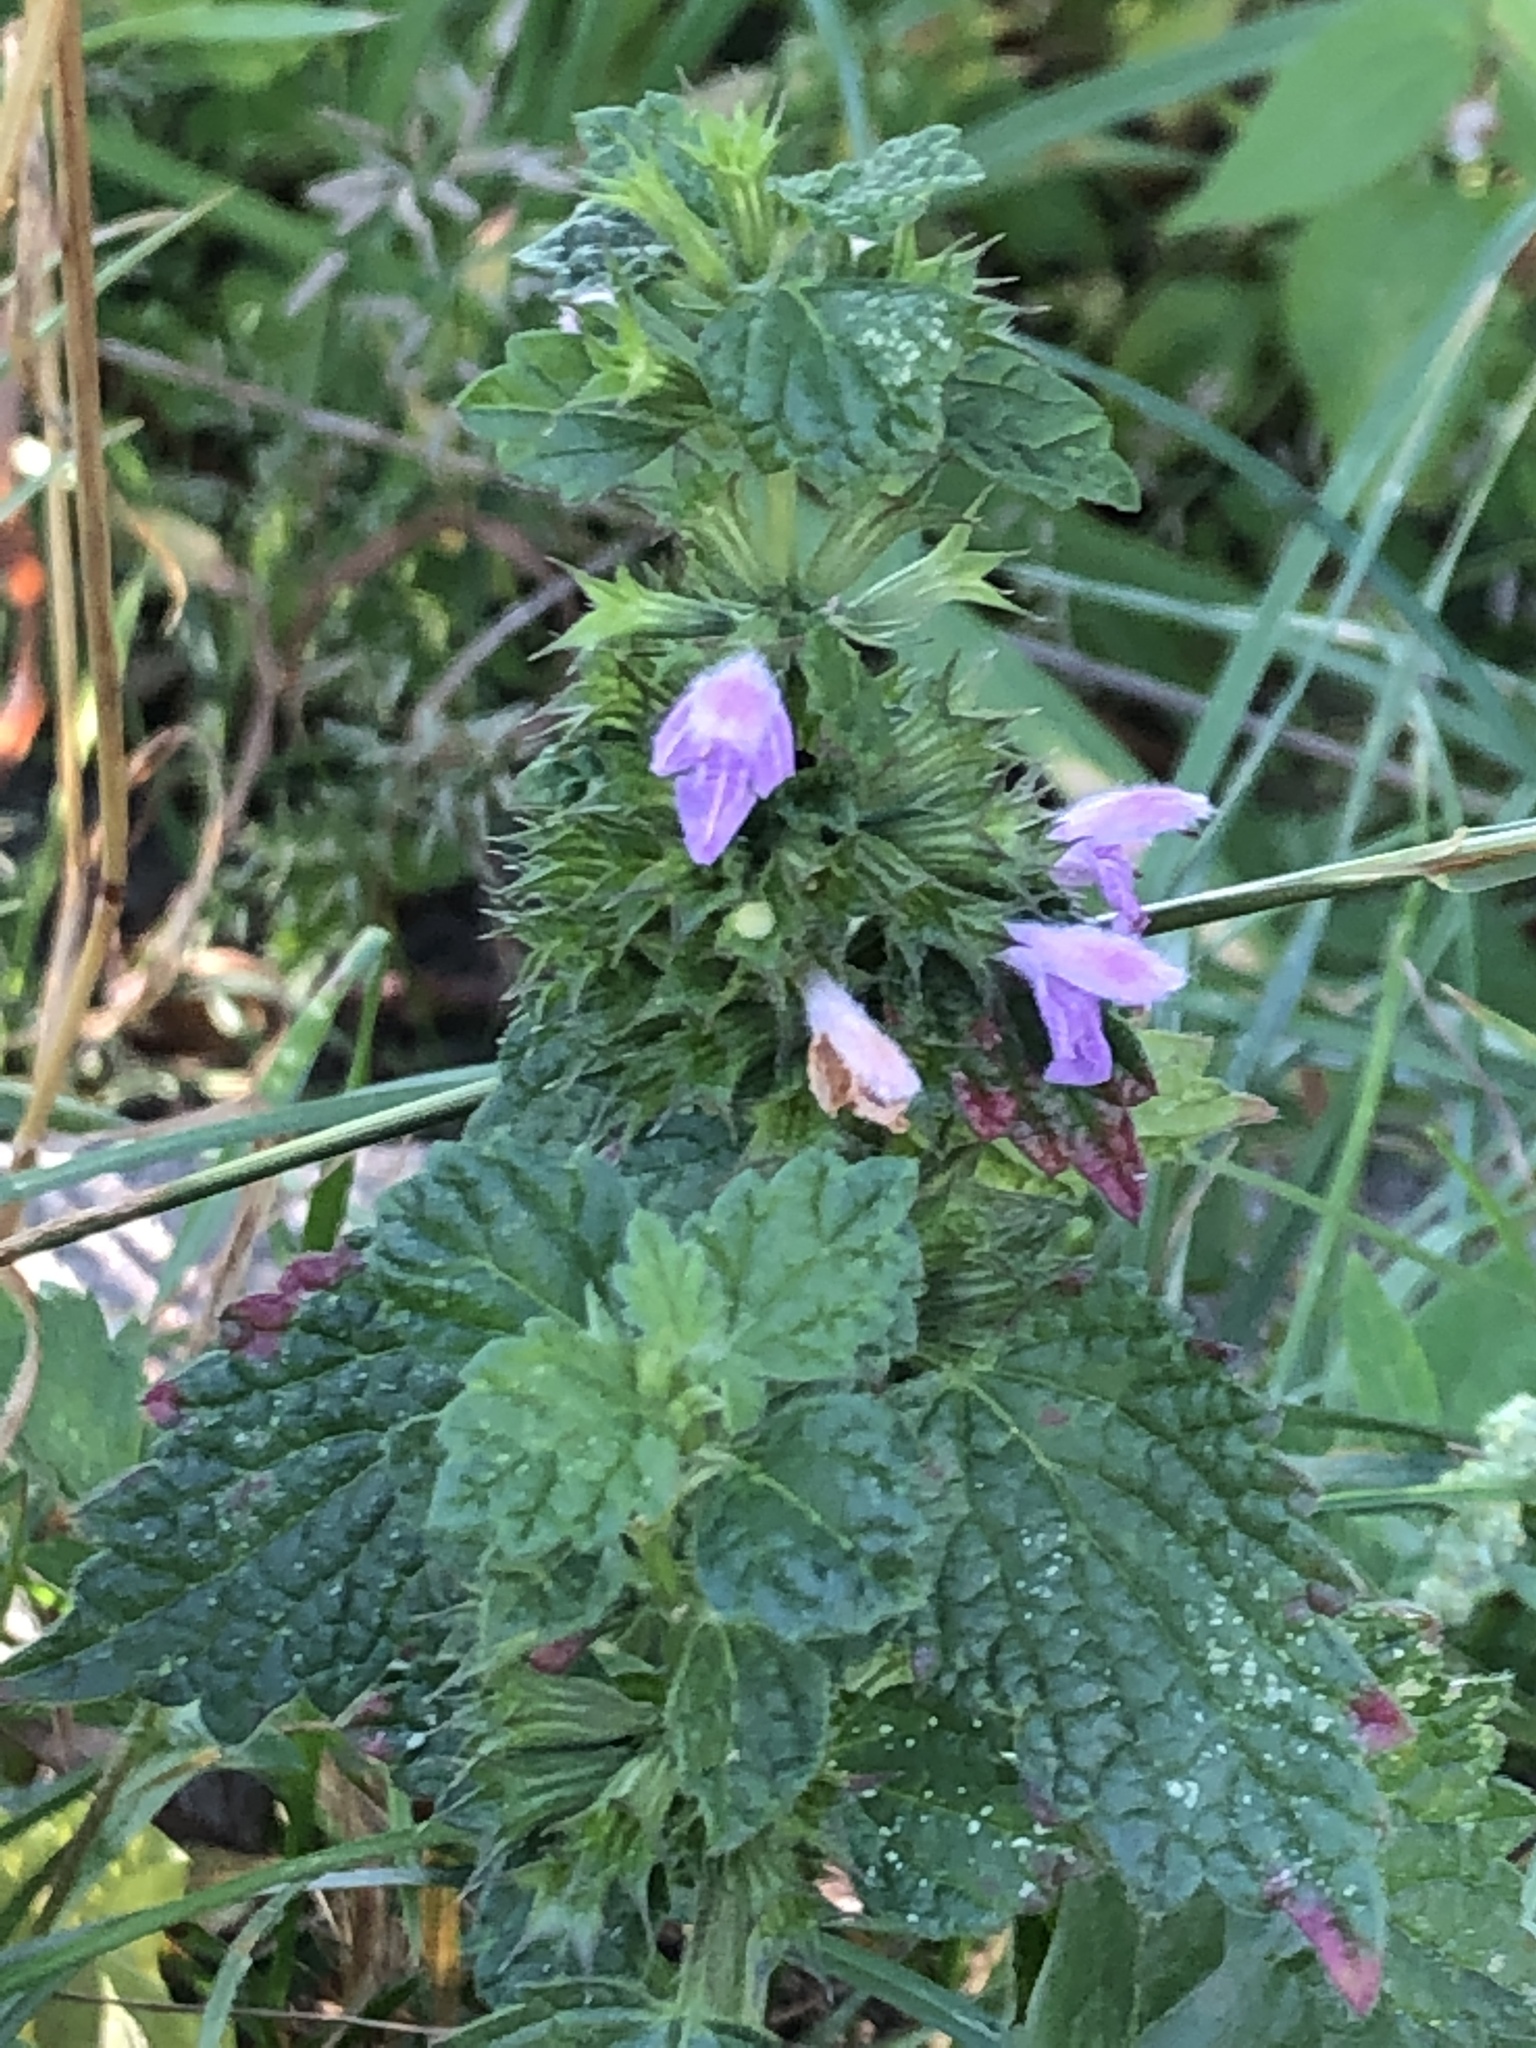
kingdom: Plantae
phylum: Tracheophyta
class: Magnoliopsida
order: Lamiales
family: Lamiaceae
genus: Ballota
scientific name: Ballota nigra
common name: Black horehound
